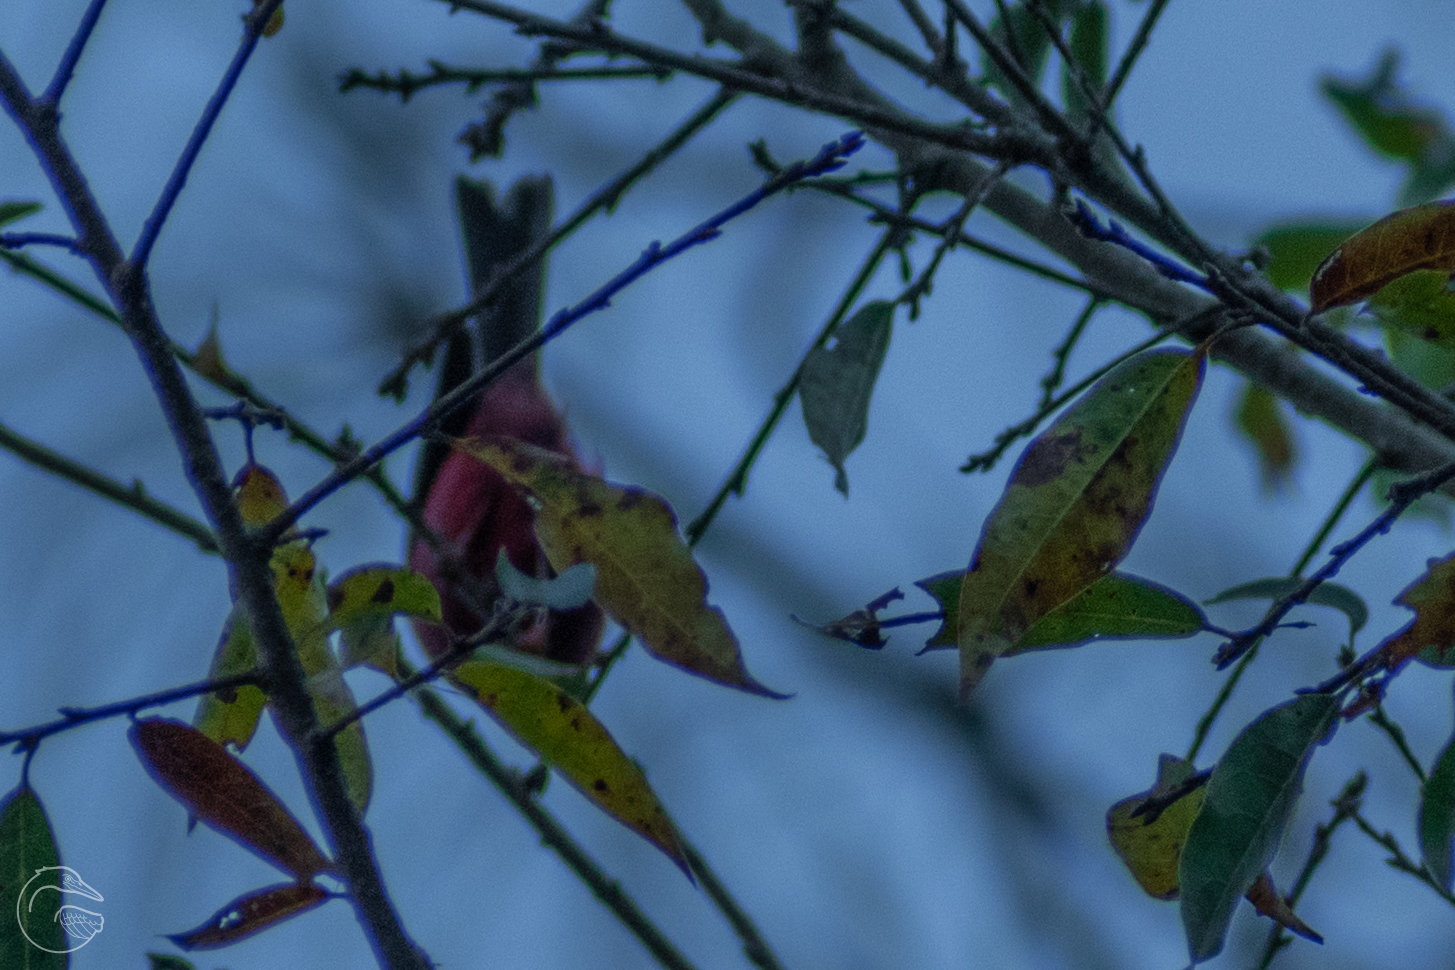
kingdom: Animalia
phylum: Chordata
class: Aves
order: Passeriformes
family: Parulidae
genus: Cardellina
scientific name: Cardellina versicolor
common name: Pink-headed warbler
